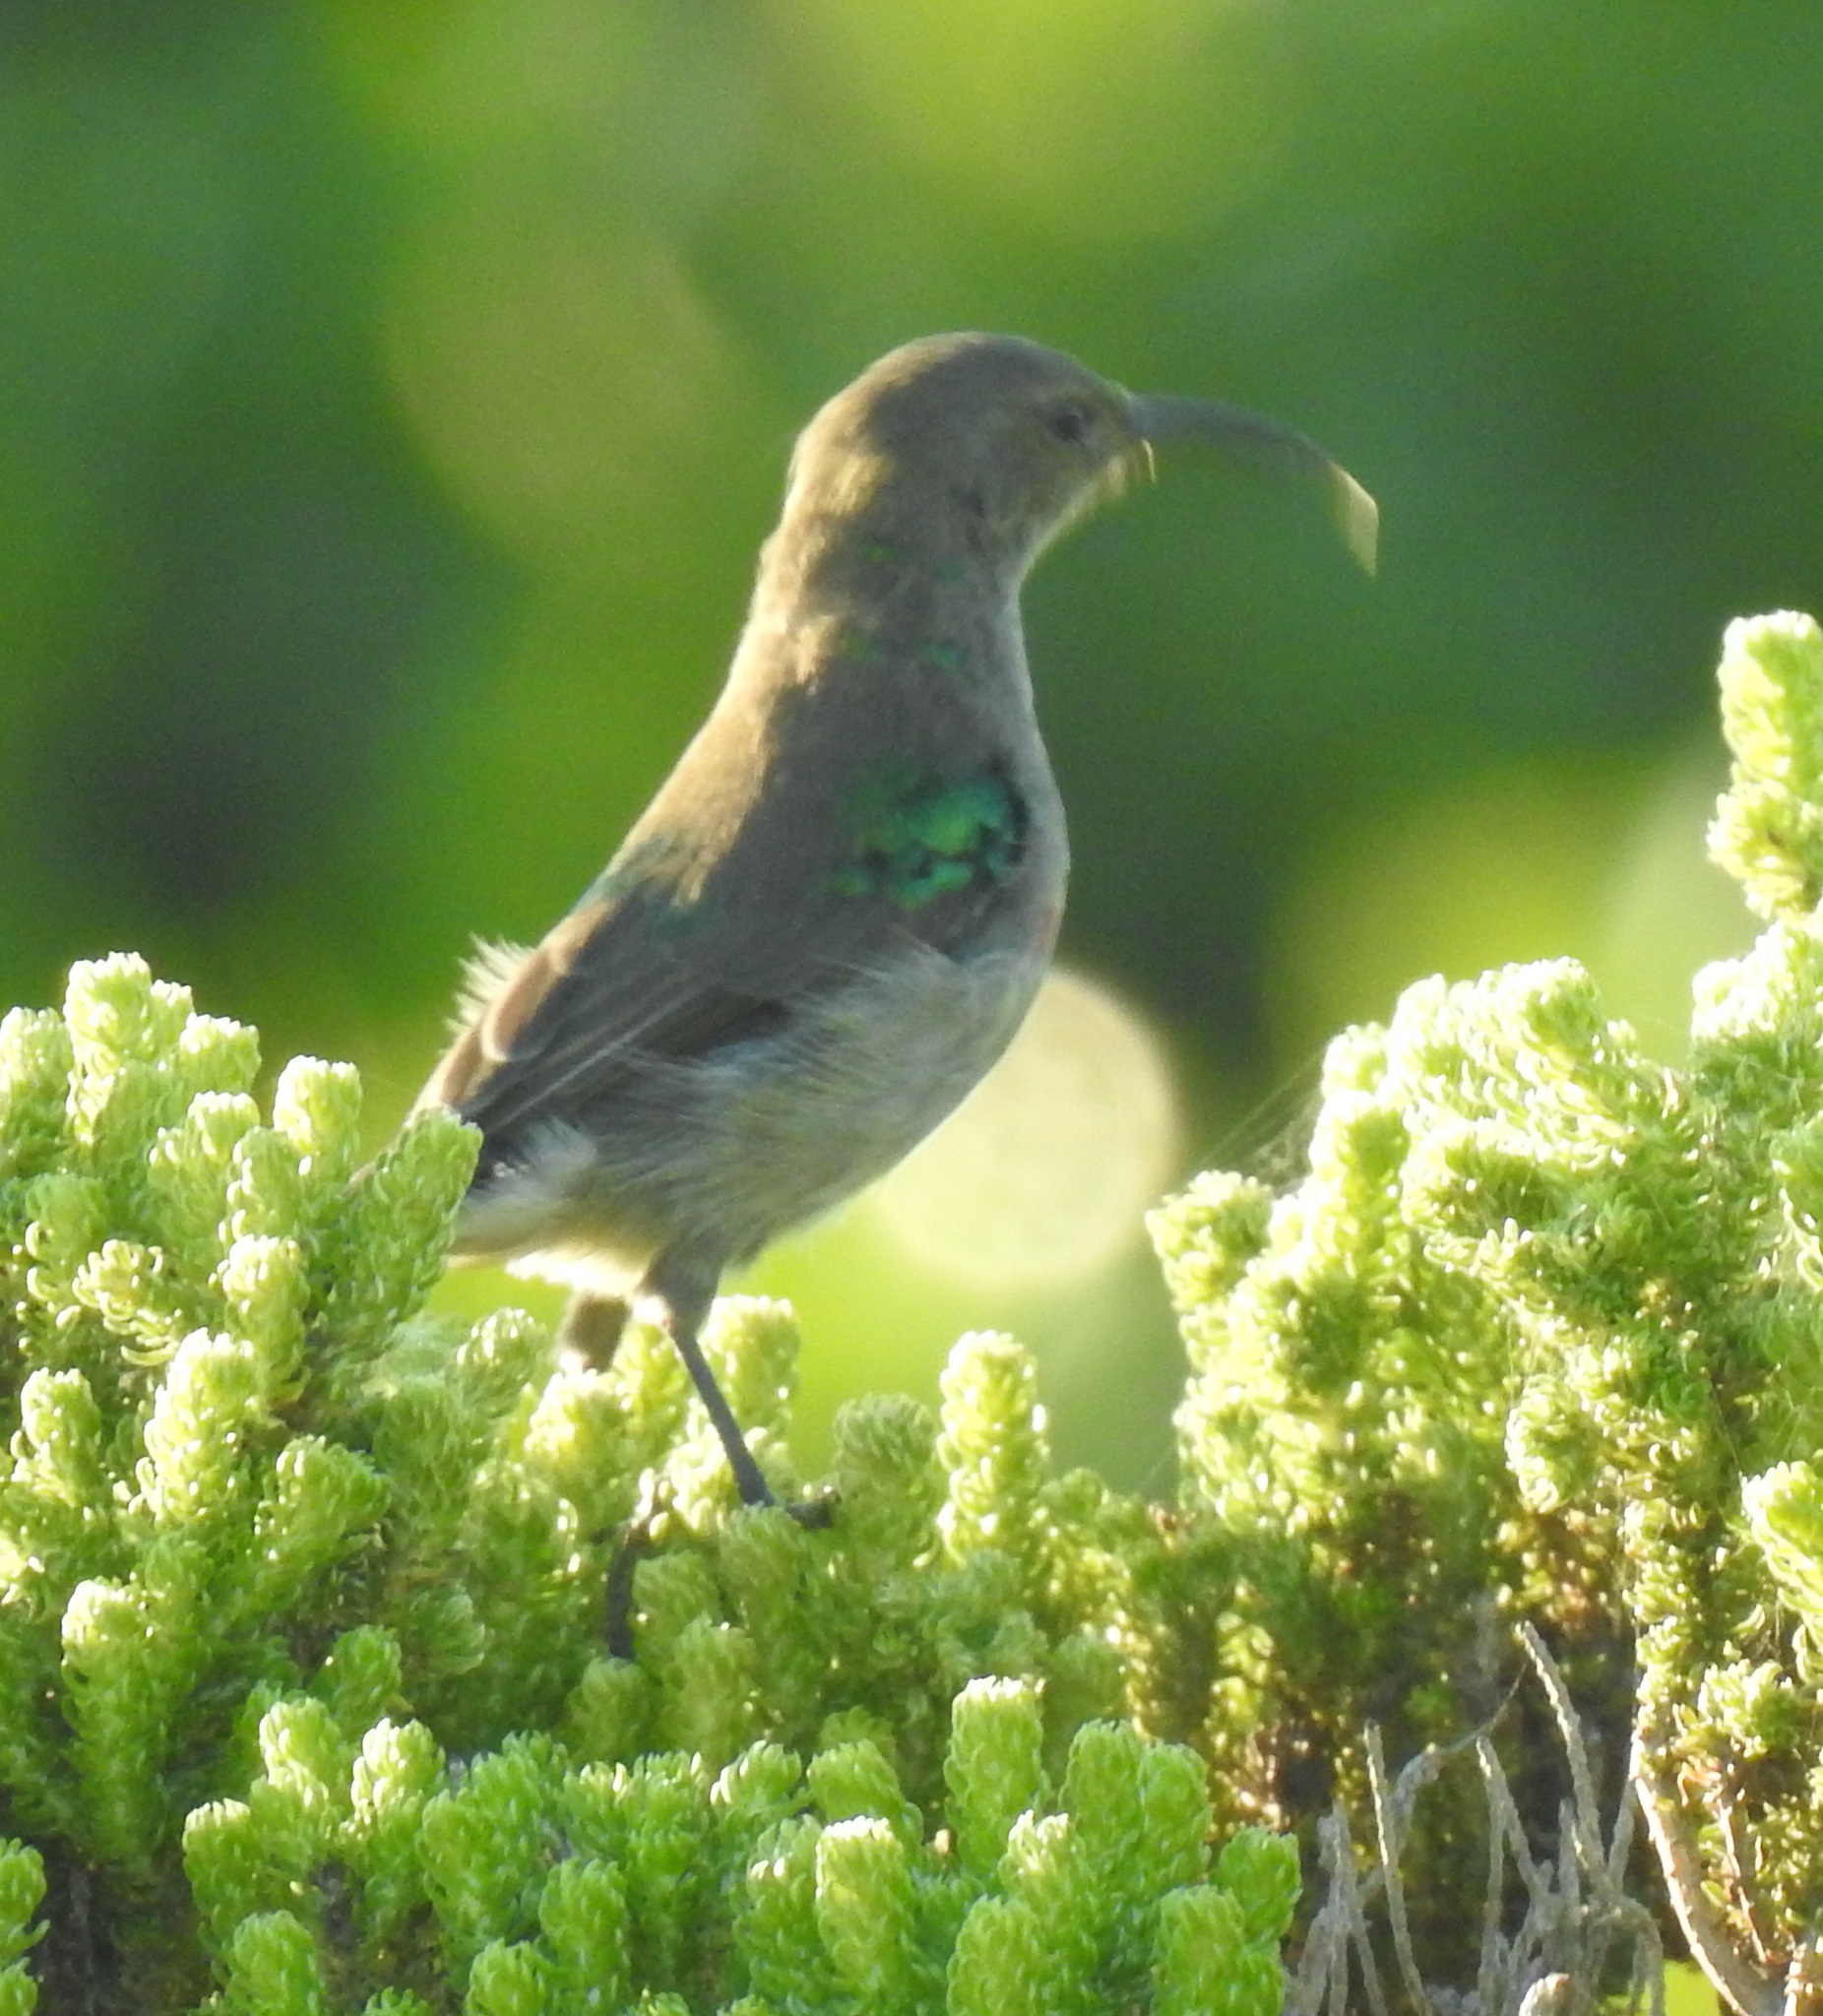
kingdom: Animalia
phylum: Chordata
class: Aves
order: Passeriformes
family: Nectariniidae
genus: Nectarinia
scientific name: Nectarinia famosa
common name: Malachite sunbird
